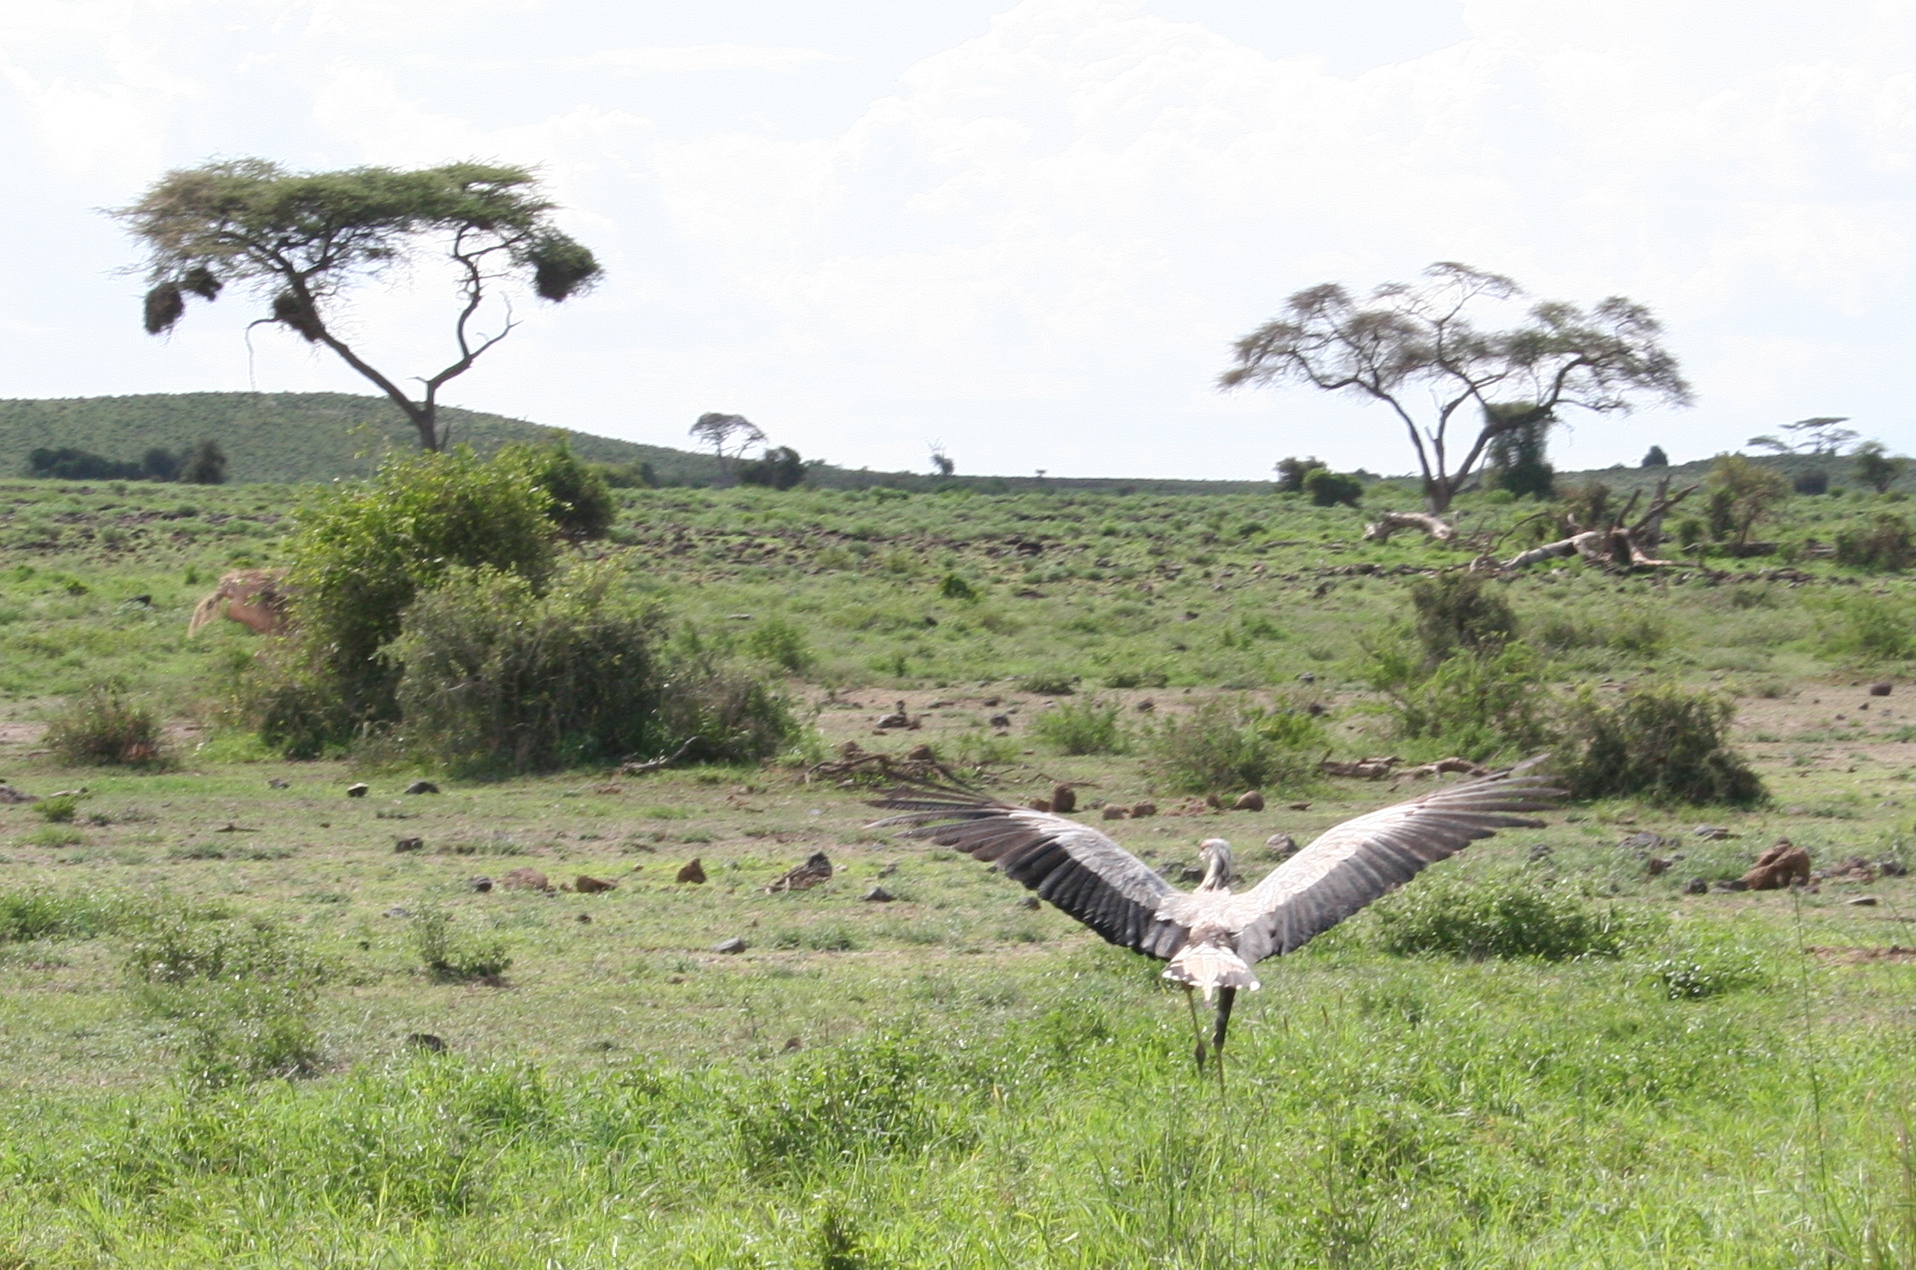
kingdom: Animalia
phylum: Chordata
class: Aves
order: Accipitriformes
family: Sagittariidae
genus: Sagittarius
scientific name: Sagittarius serpentarius
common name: Secretarybird
